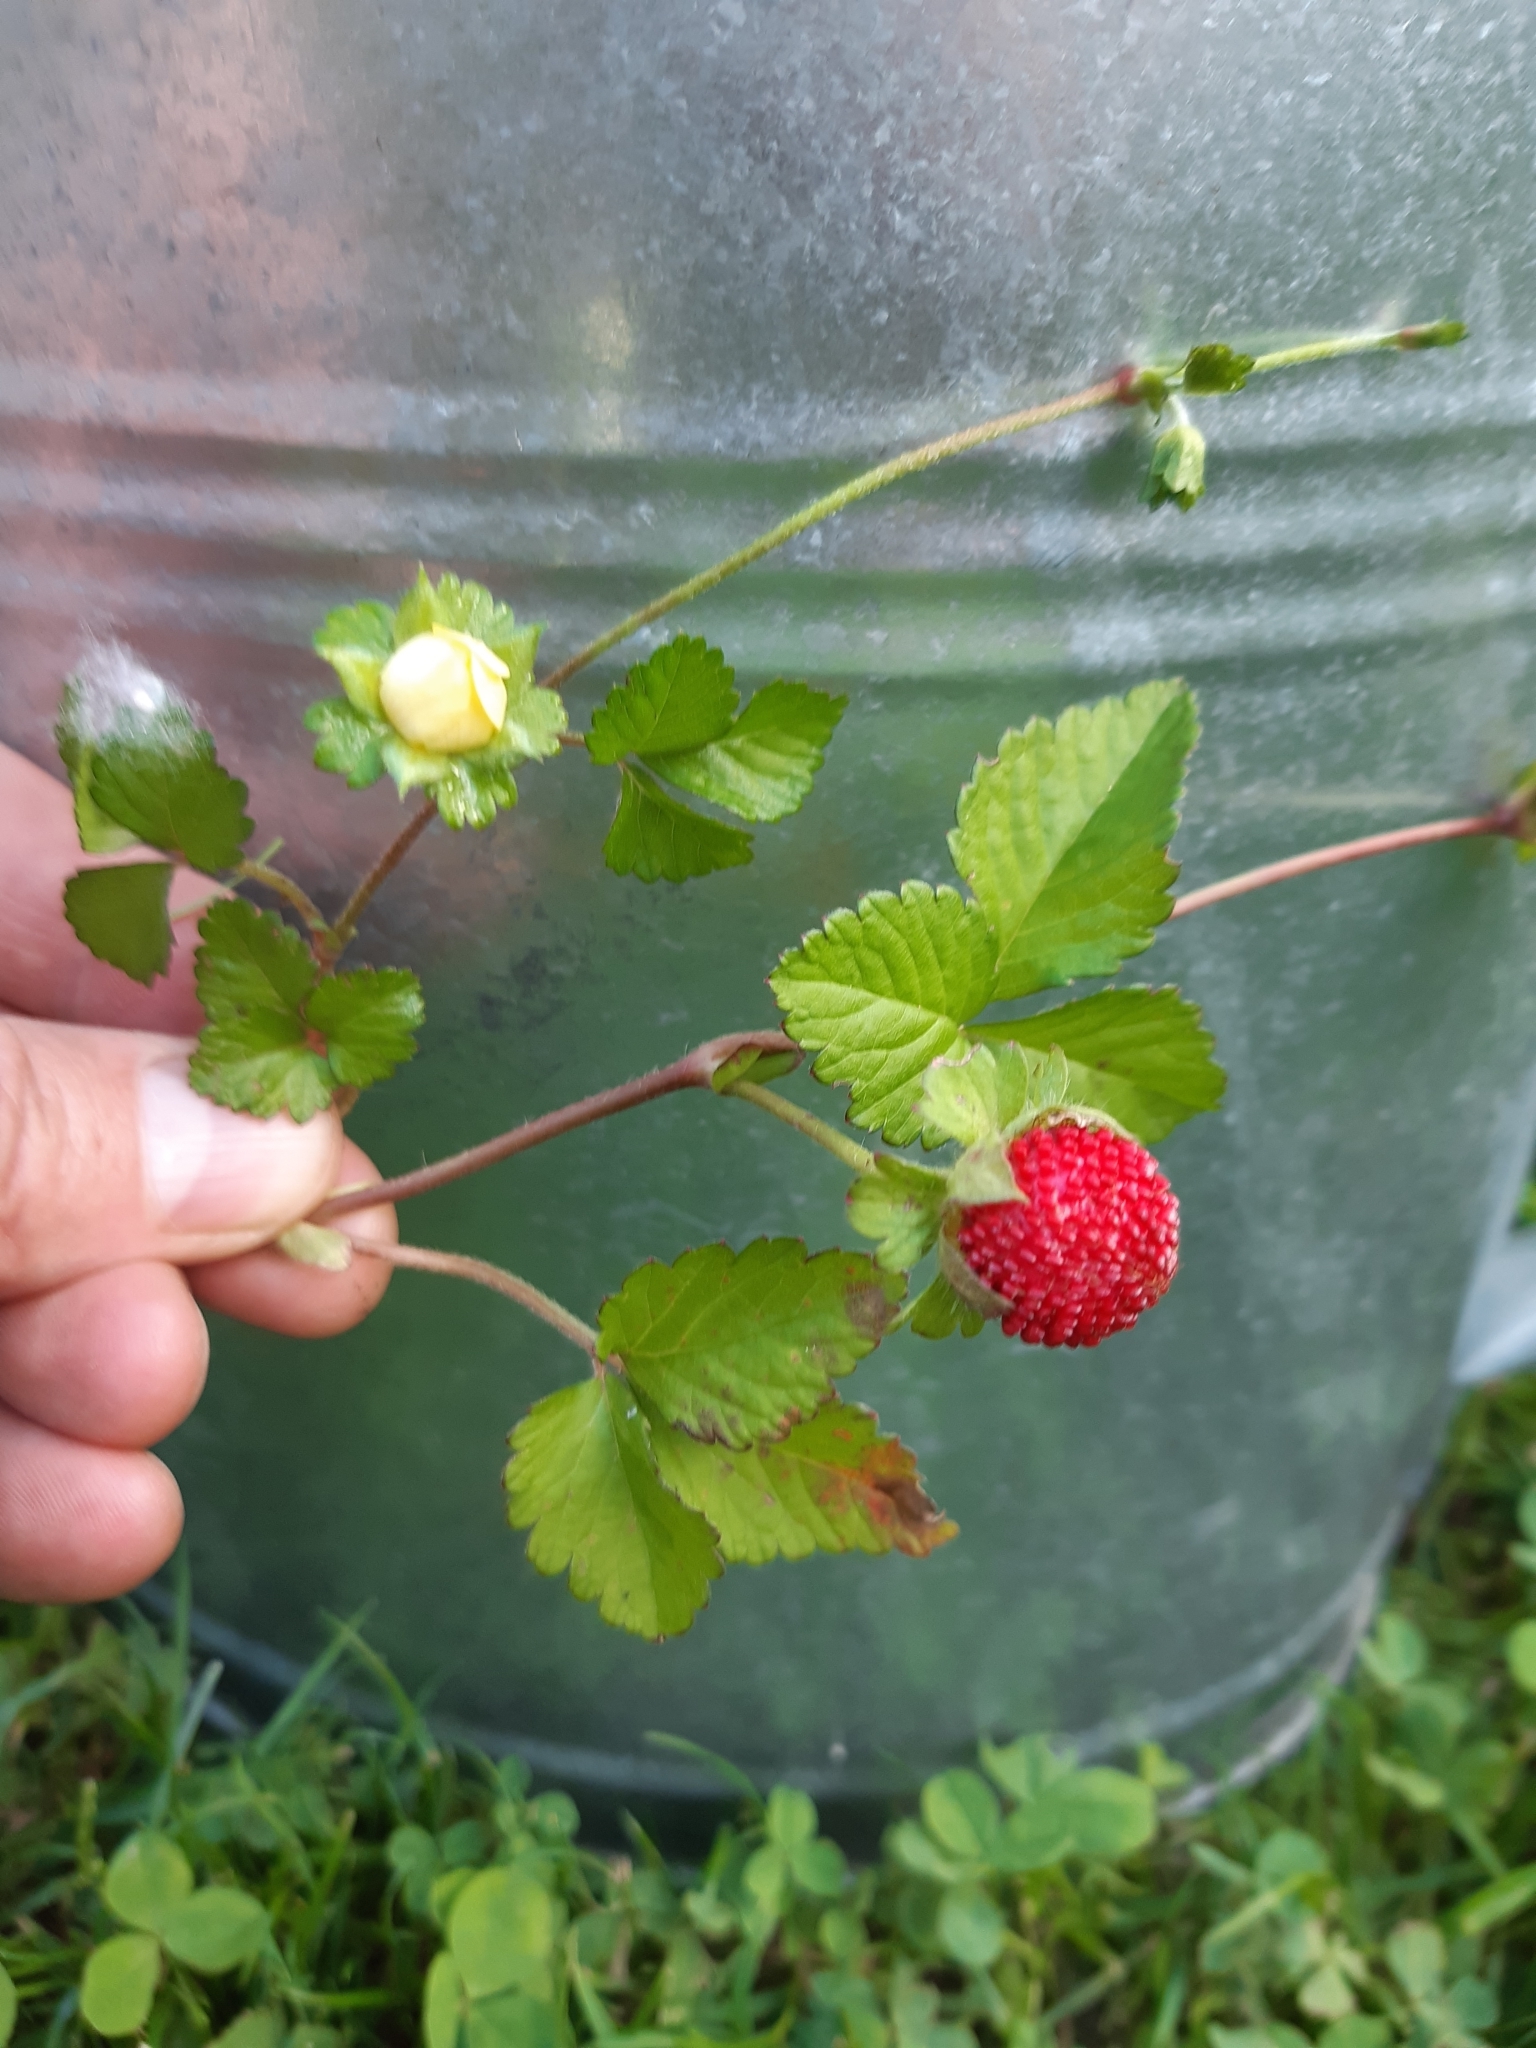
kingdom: Plantae
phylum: Tracheophyta
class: Magnoliopsida
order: Rosales
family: Rosaceae
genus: Potentilla
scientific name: Potentilla indica
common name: Yellow-flowered strawberry
